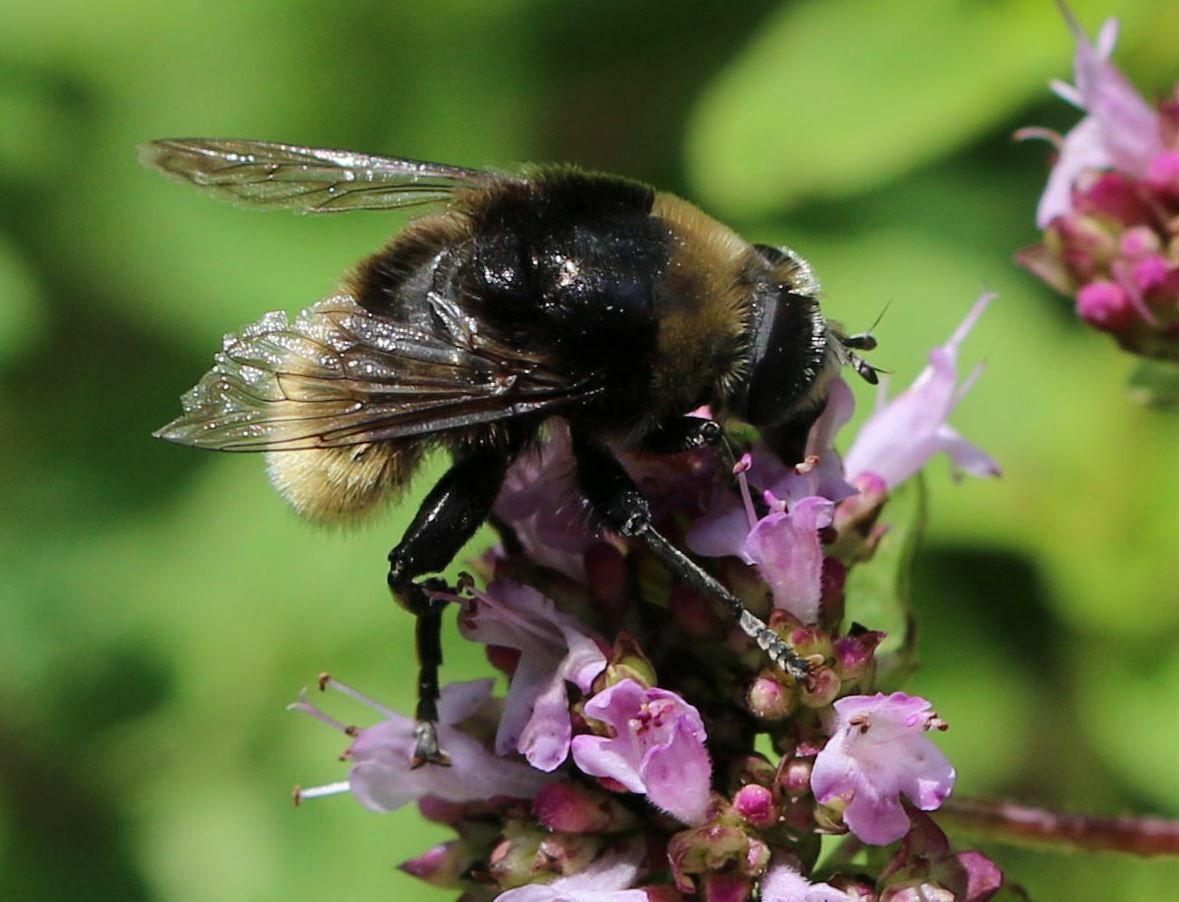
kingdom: Animalia
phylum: Arthropoda
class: Insecta
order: Diptera
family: Syrphidae
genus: Merodon
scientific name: Merodon equestris
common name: Greater bulb-fly
